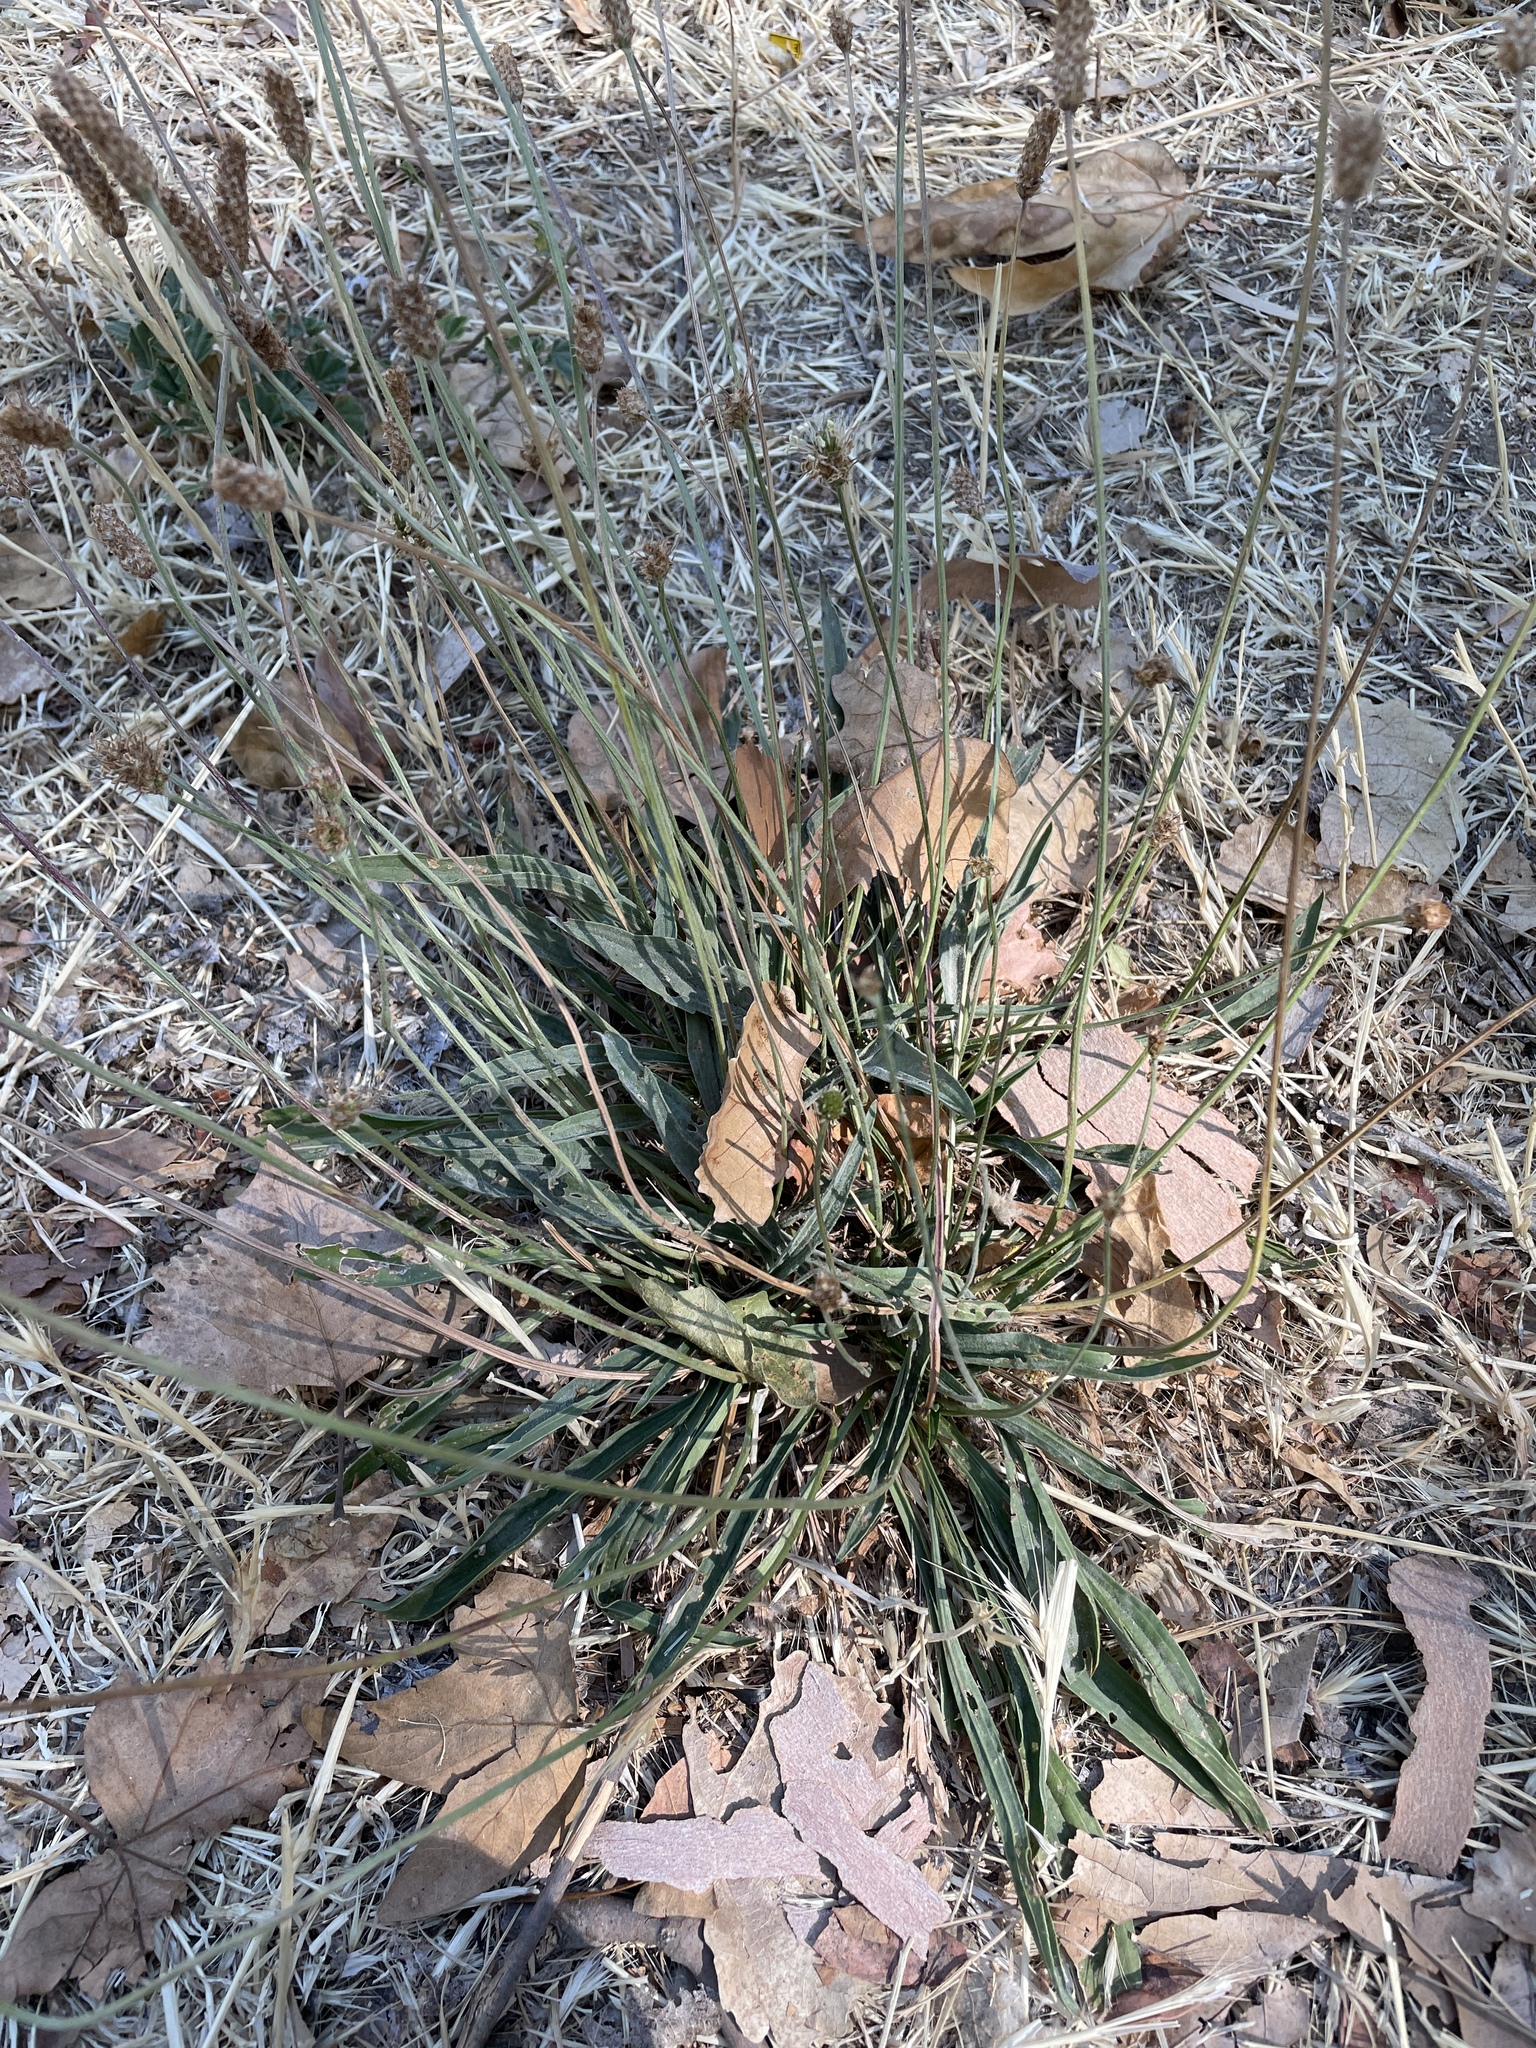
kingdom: Plantae
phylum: Tracheophyta
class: Magnoliopsida
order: Lamiales
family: Plantaginaceae
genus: Plantago
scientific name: Plantago lanceolata
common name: Ribwort plantain
